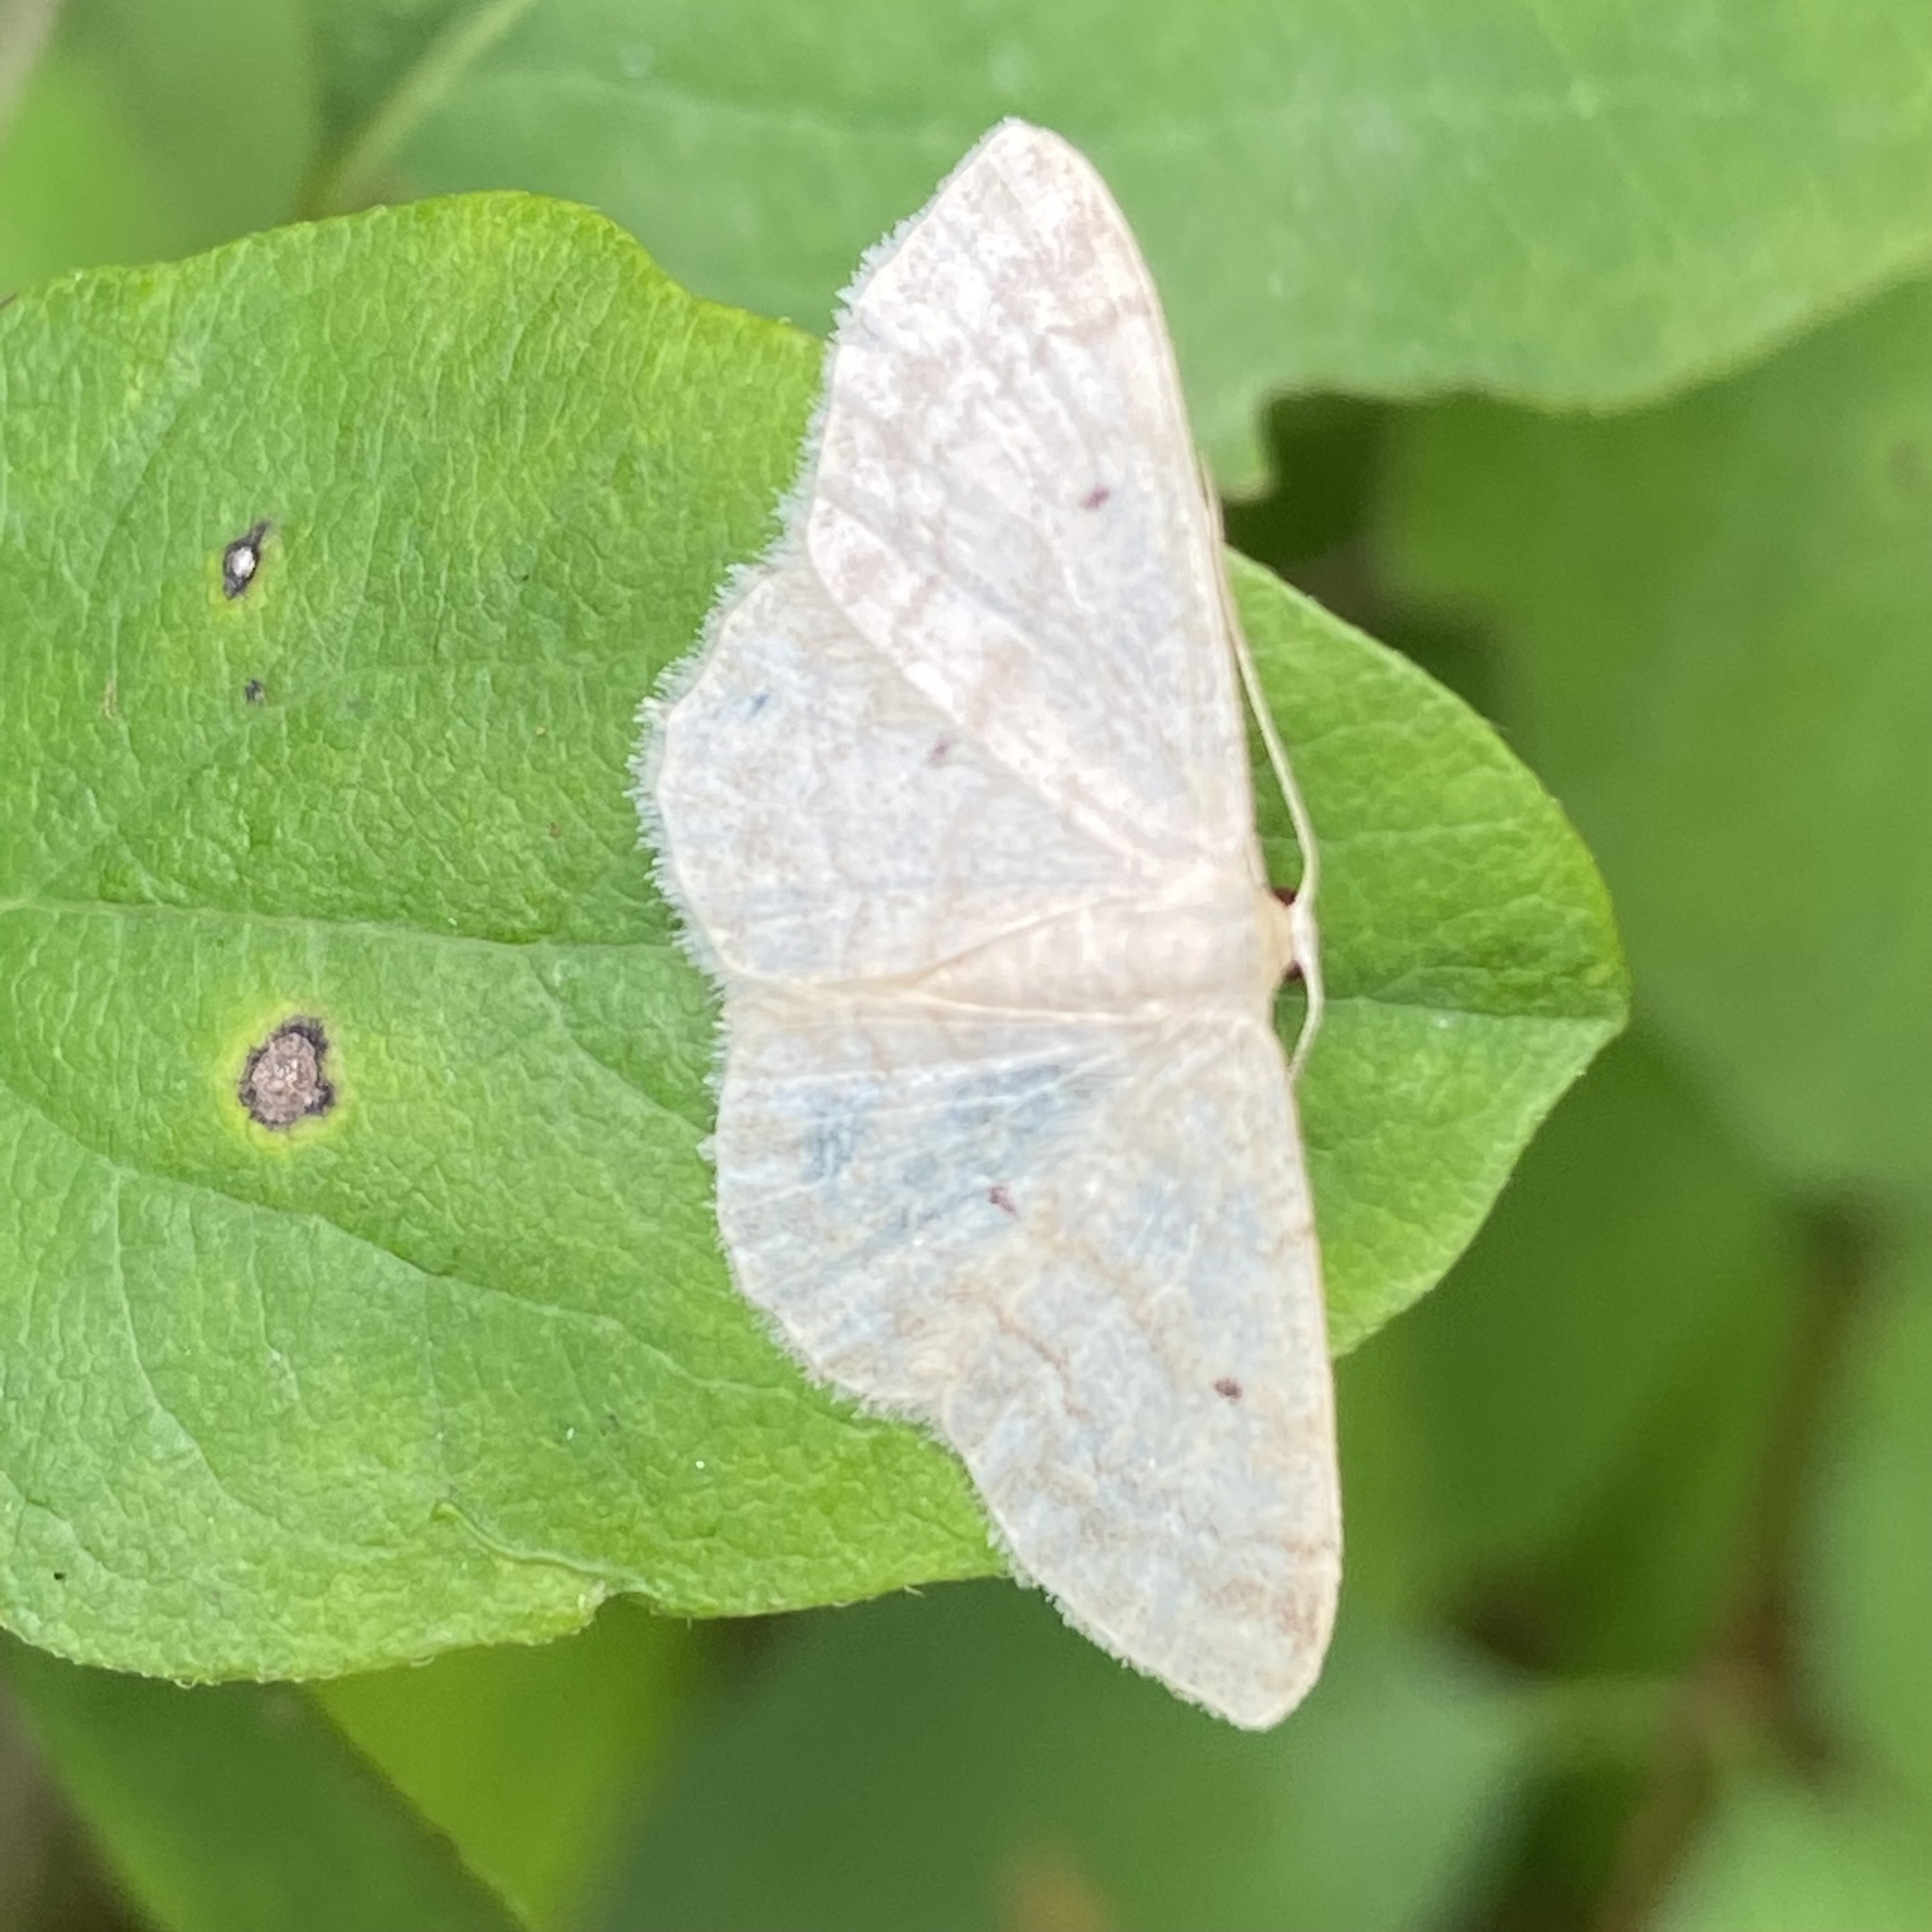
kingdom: Animalia
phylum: Arthropoda
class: Insecta
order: Lepidoptera
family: Geometridae
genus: Idaea
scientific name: Idaea biselata
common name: Small fan-footed wave
